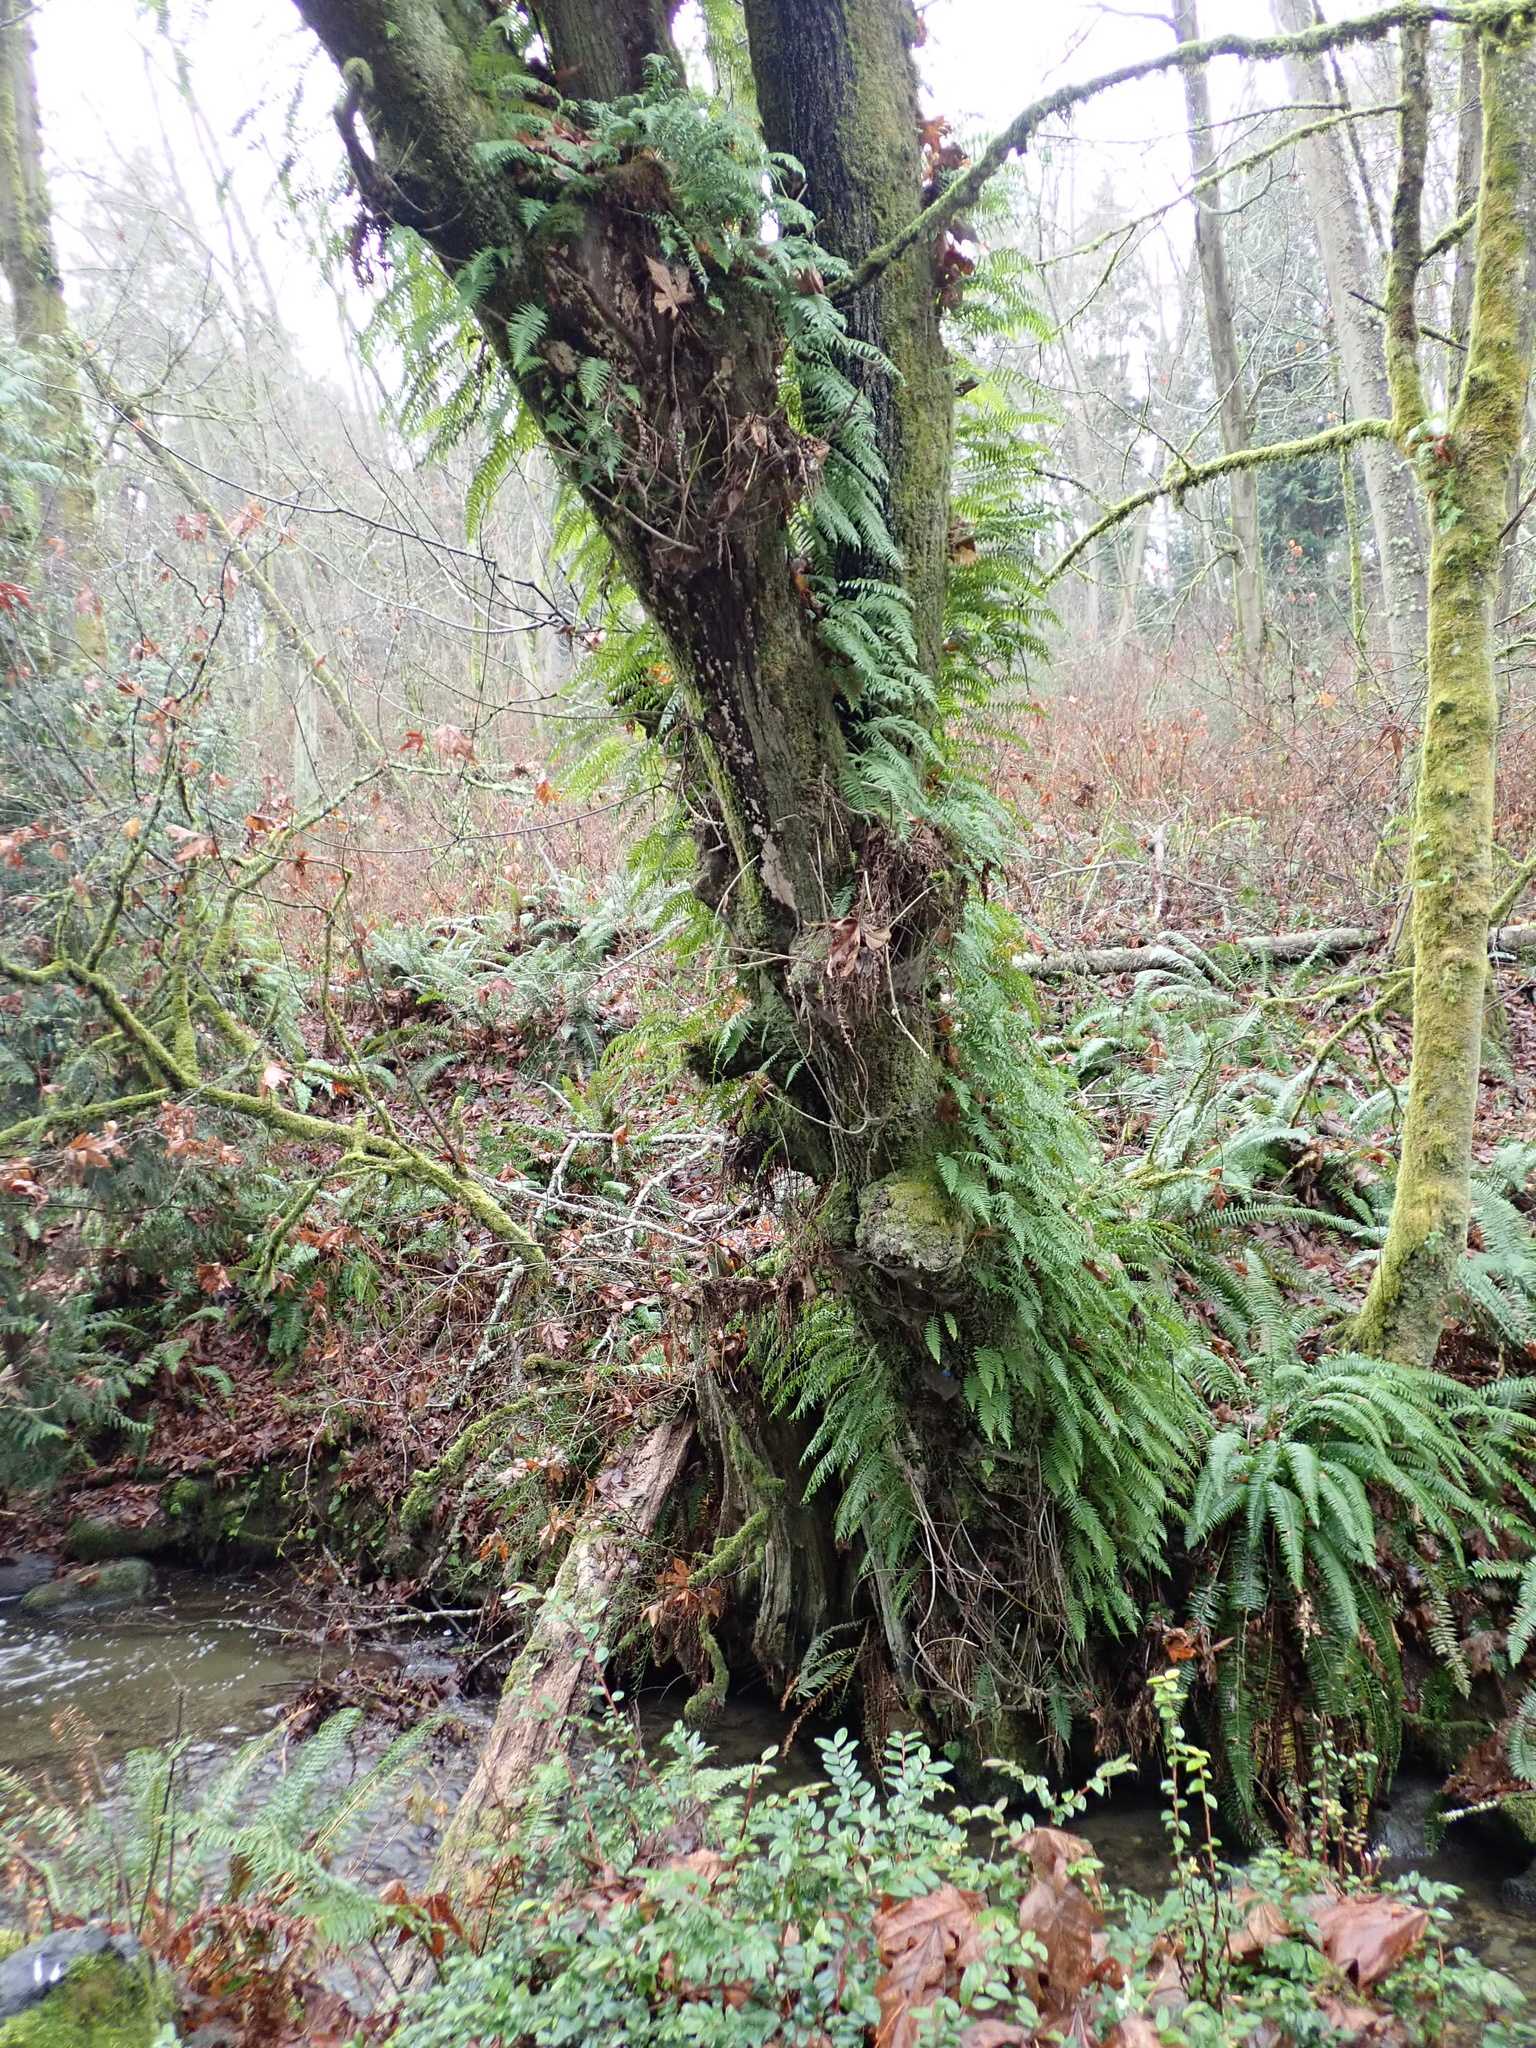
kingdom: Plantae
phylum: Tracheophyta
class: Polypodiopsida
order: Polypodiales
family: Polypodiaceae
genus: Polypodium
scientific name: Polypodium glycyrrhiza
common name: Licorice fern
